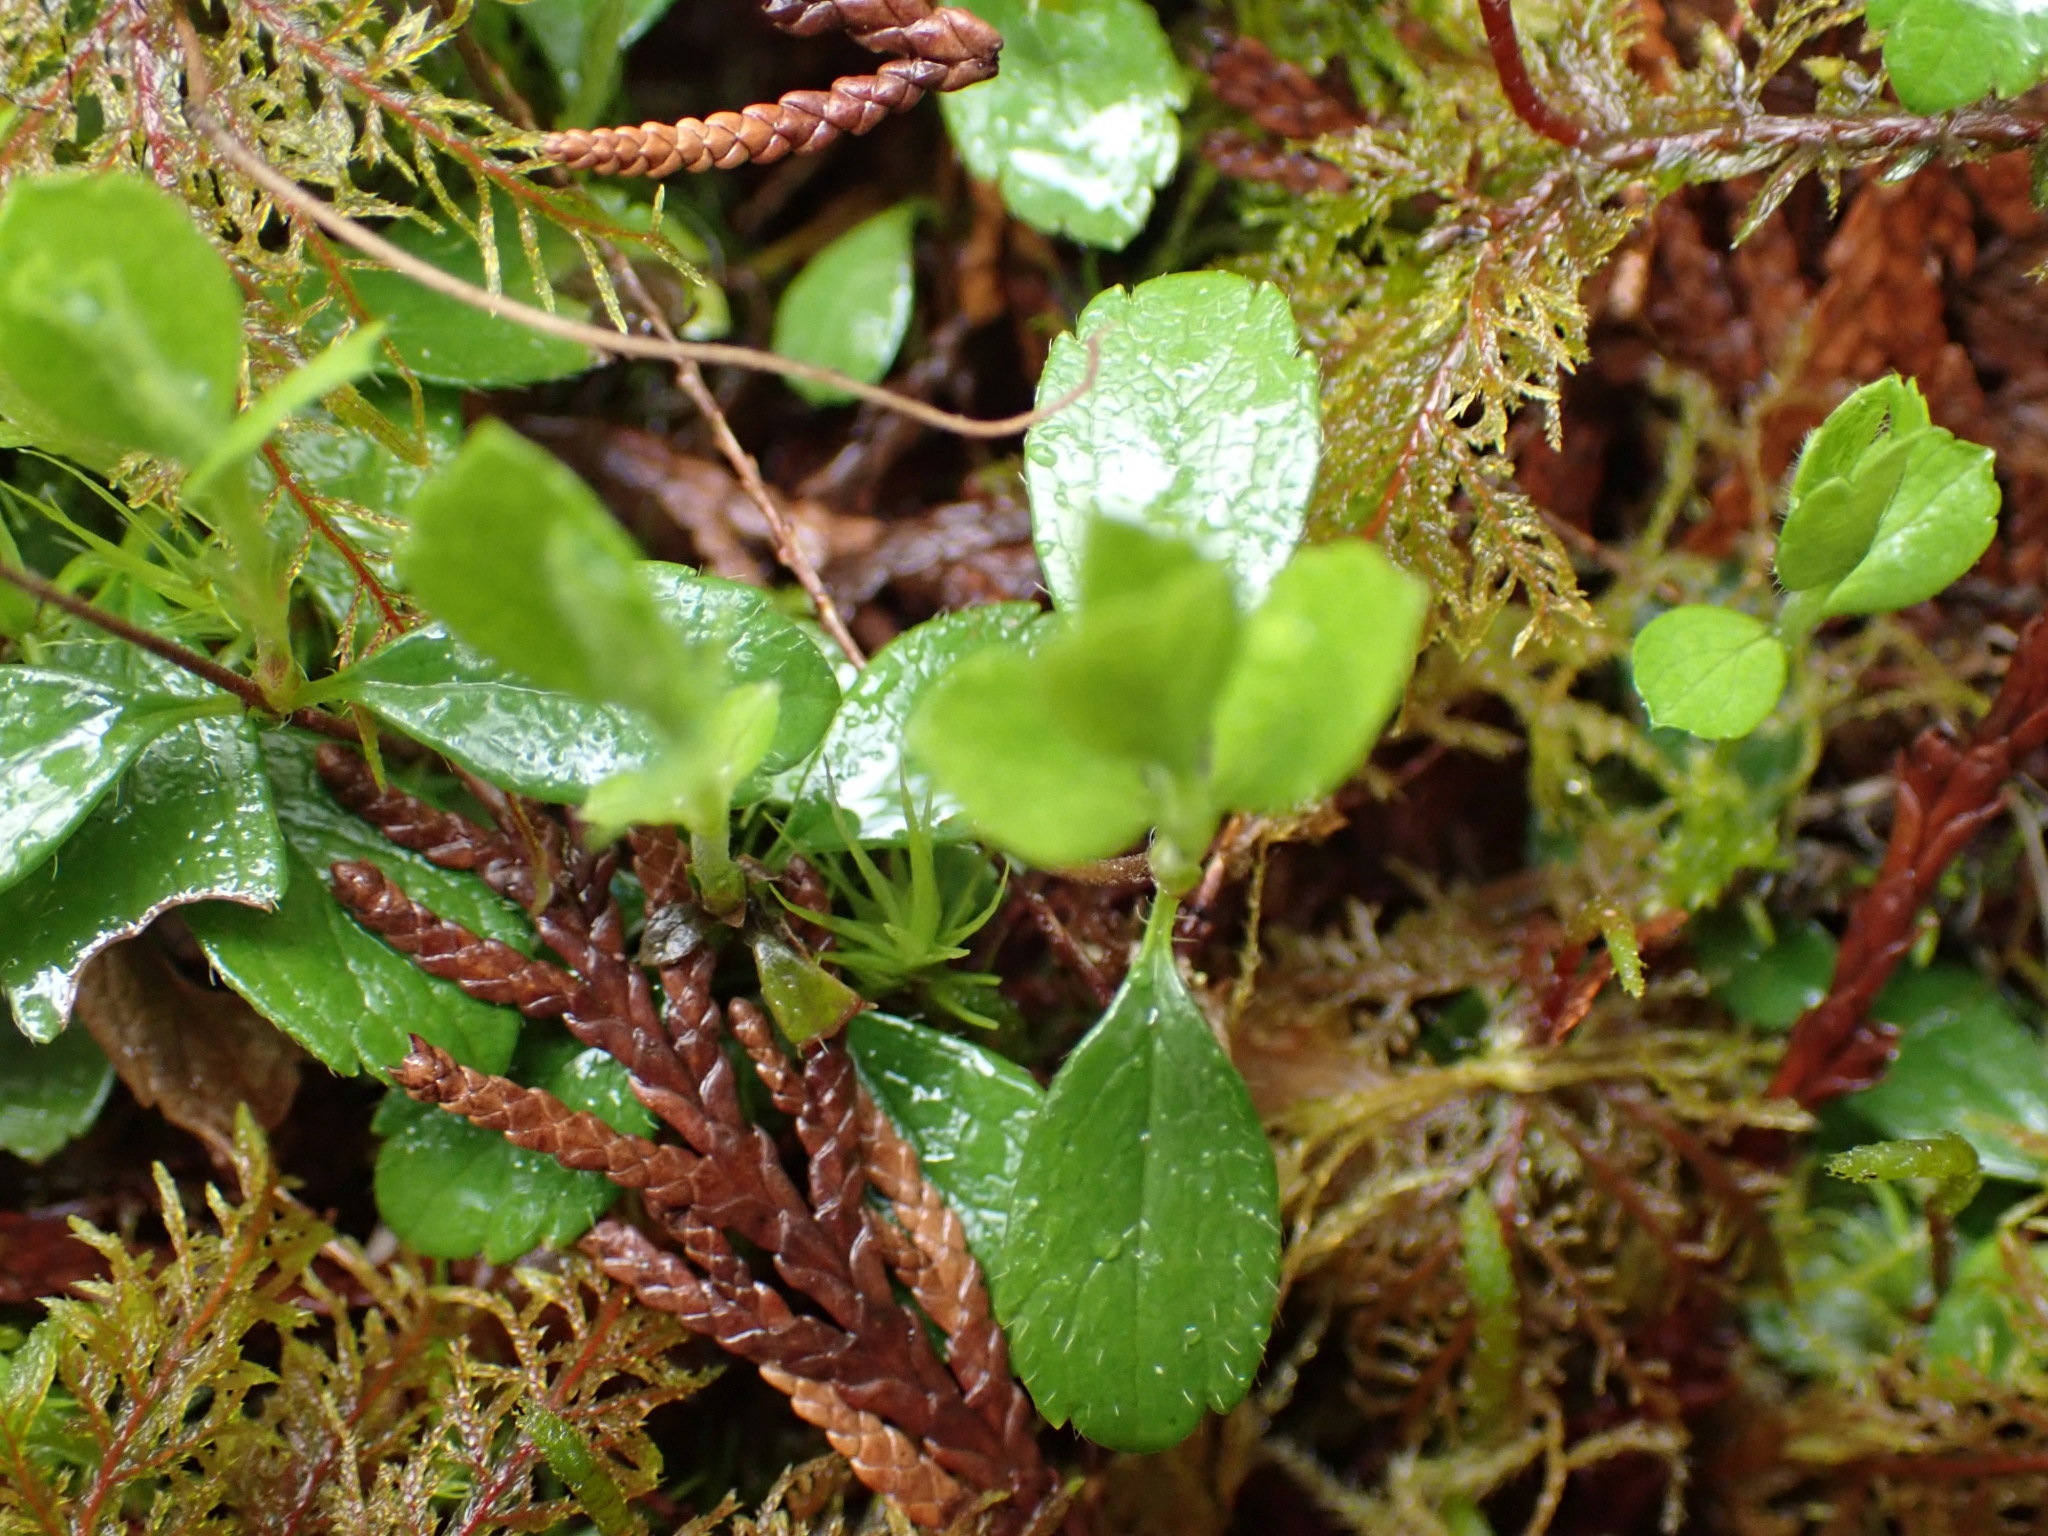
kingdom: Plantae
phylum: Tracheophyta
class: Magnoliopsida
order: Dipsacales
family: Caprifoliaceae
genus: Linnaea
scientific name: Linnaea borealis
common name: Twinflower
